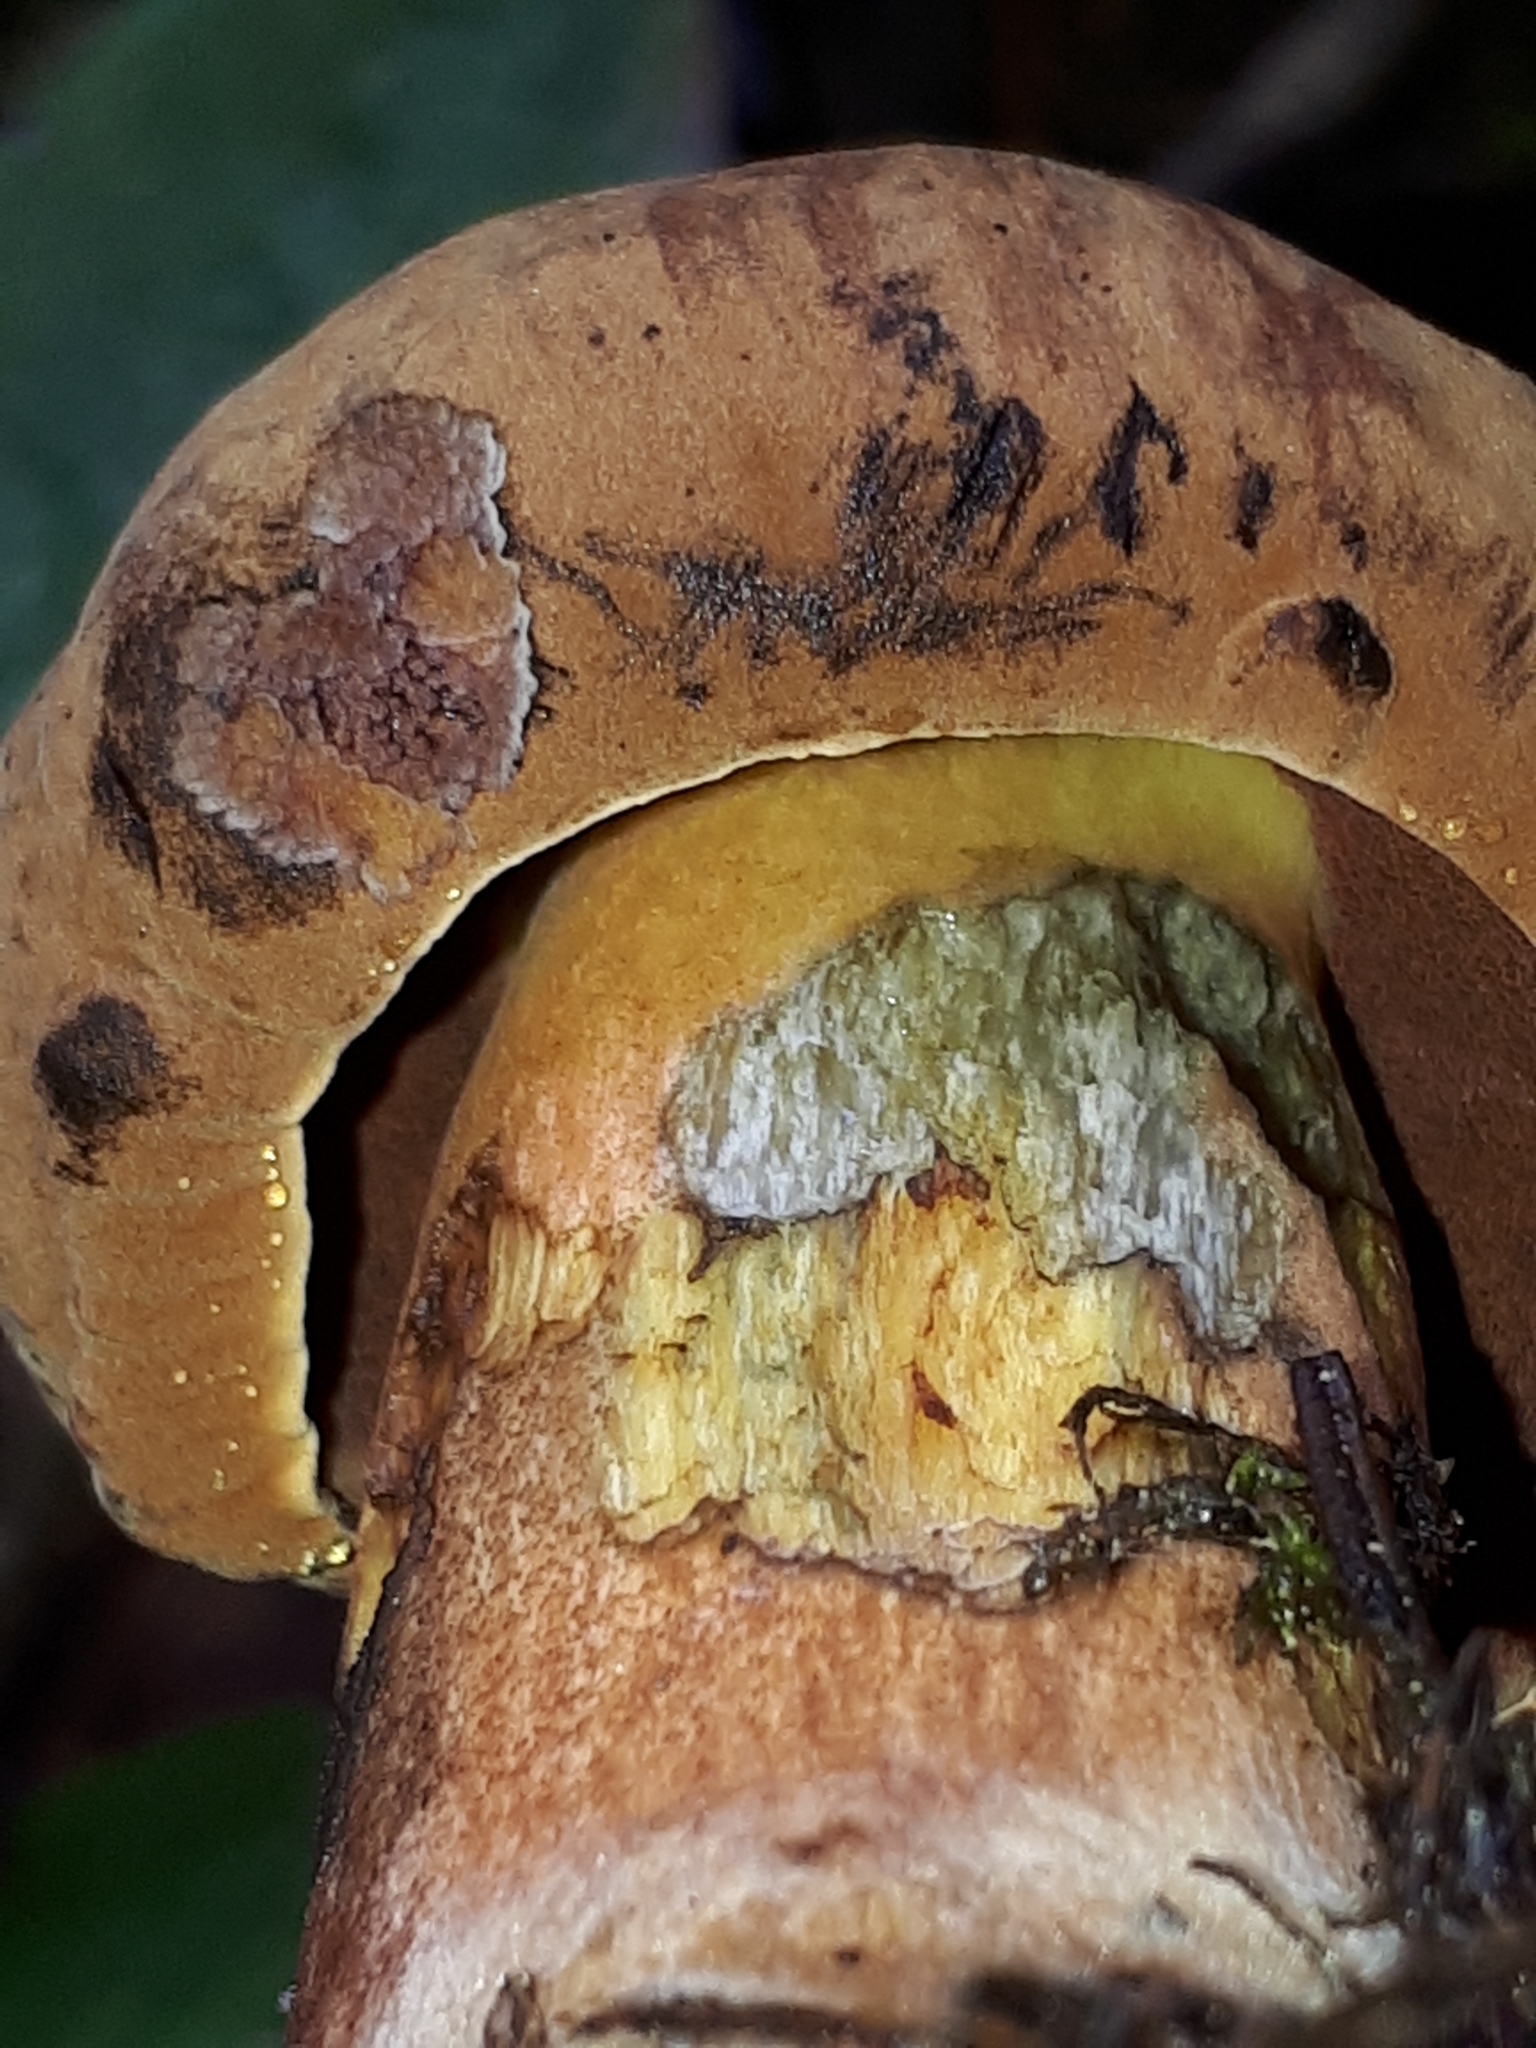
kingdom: Fungi
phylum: Basidiomycota
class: Agaricomycetes
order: Boletales
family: Boletaceae
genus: Neoboletus
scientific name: Neoboletus erythropus
